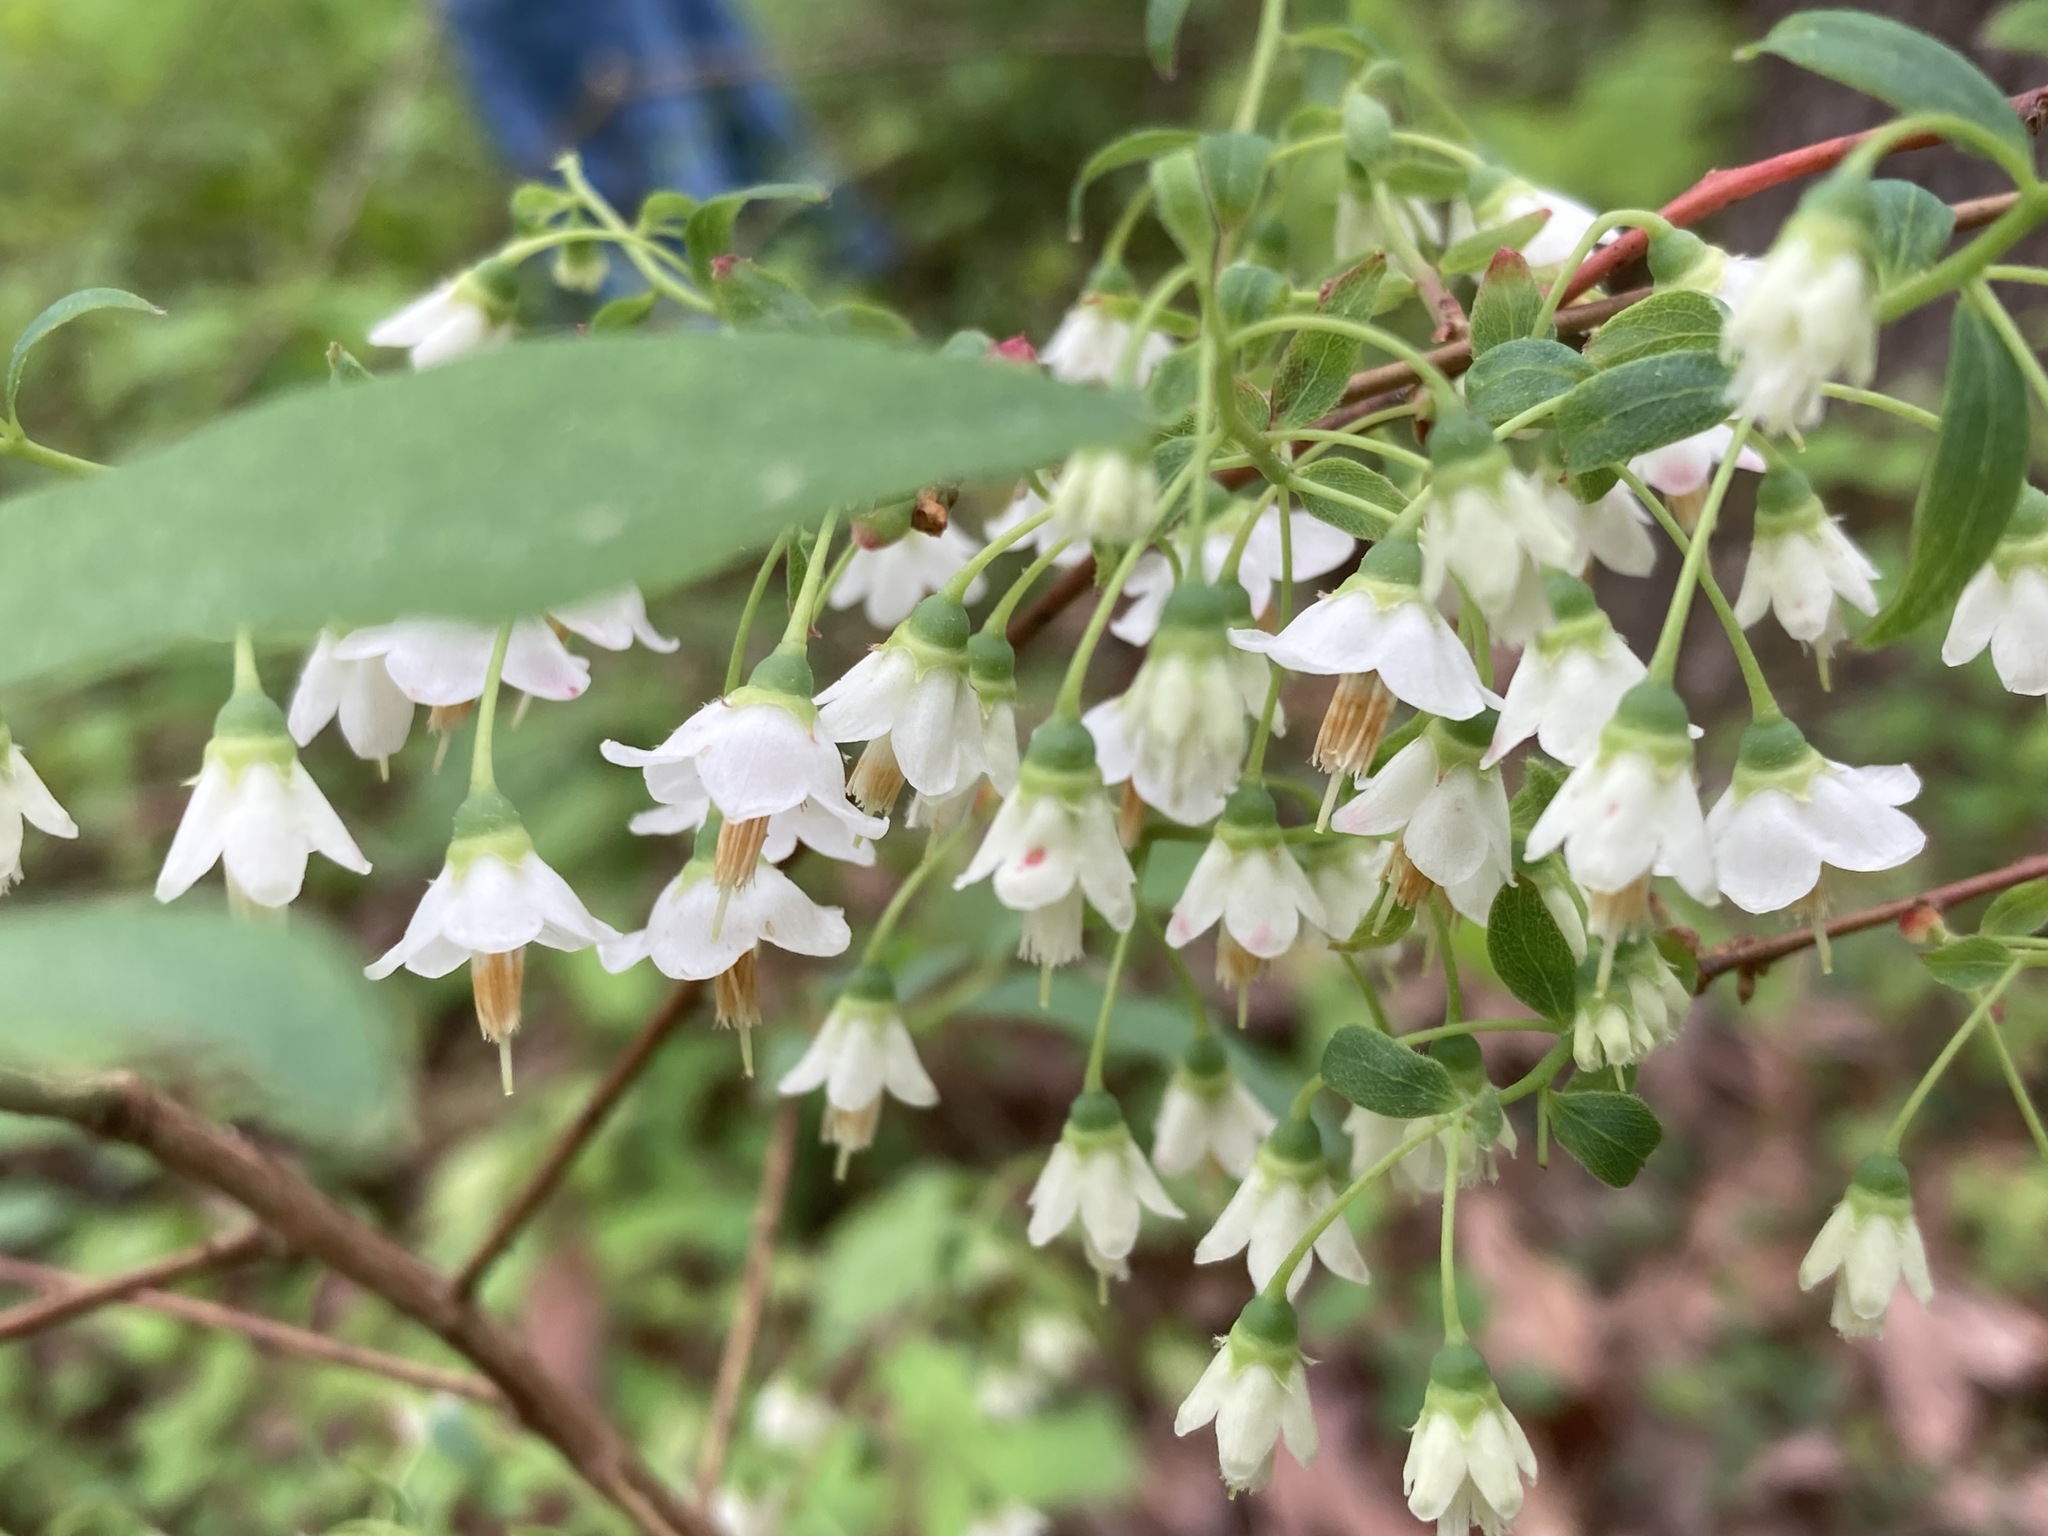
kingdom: Plantae
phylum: Tracheophyta
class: Magnoliopsida
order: Ericales
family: Ericaceae
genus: Vaccinium
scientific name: Vaccinium stamineum
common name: Deerberry
